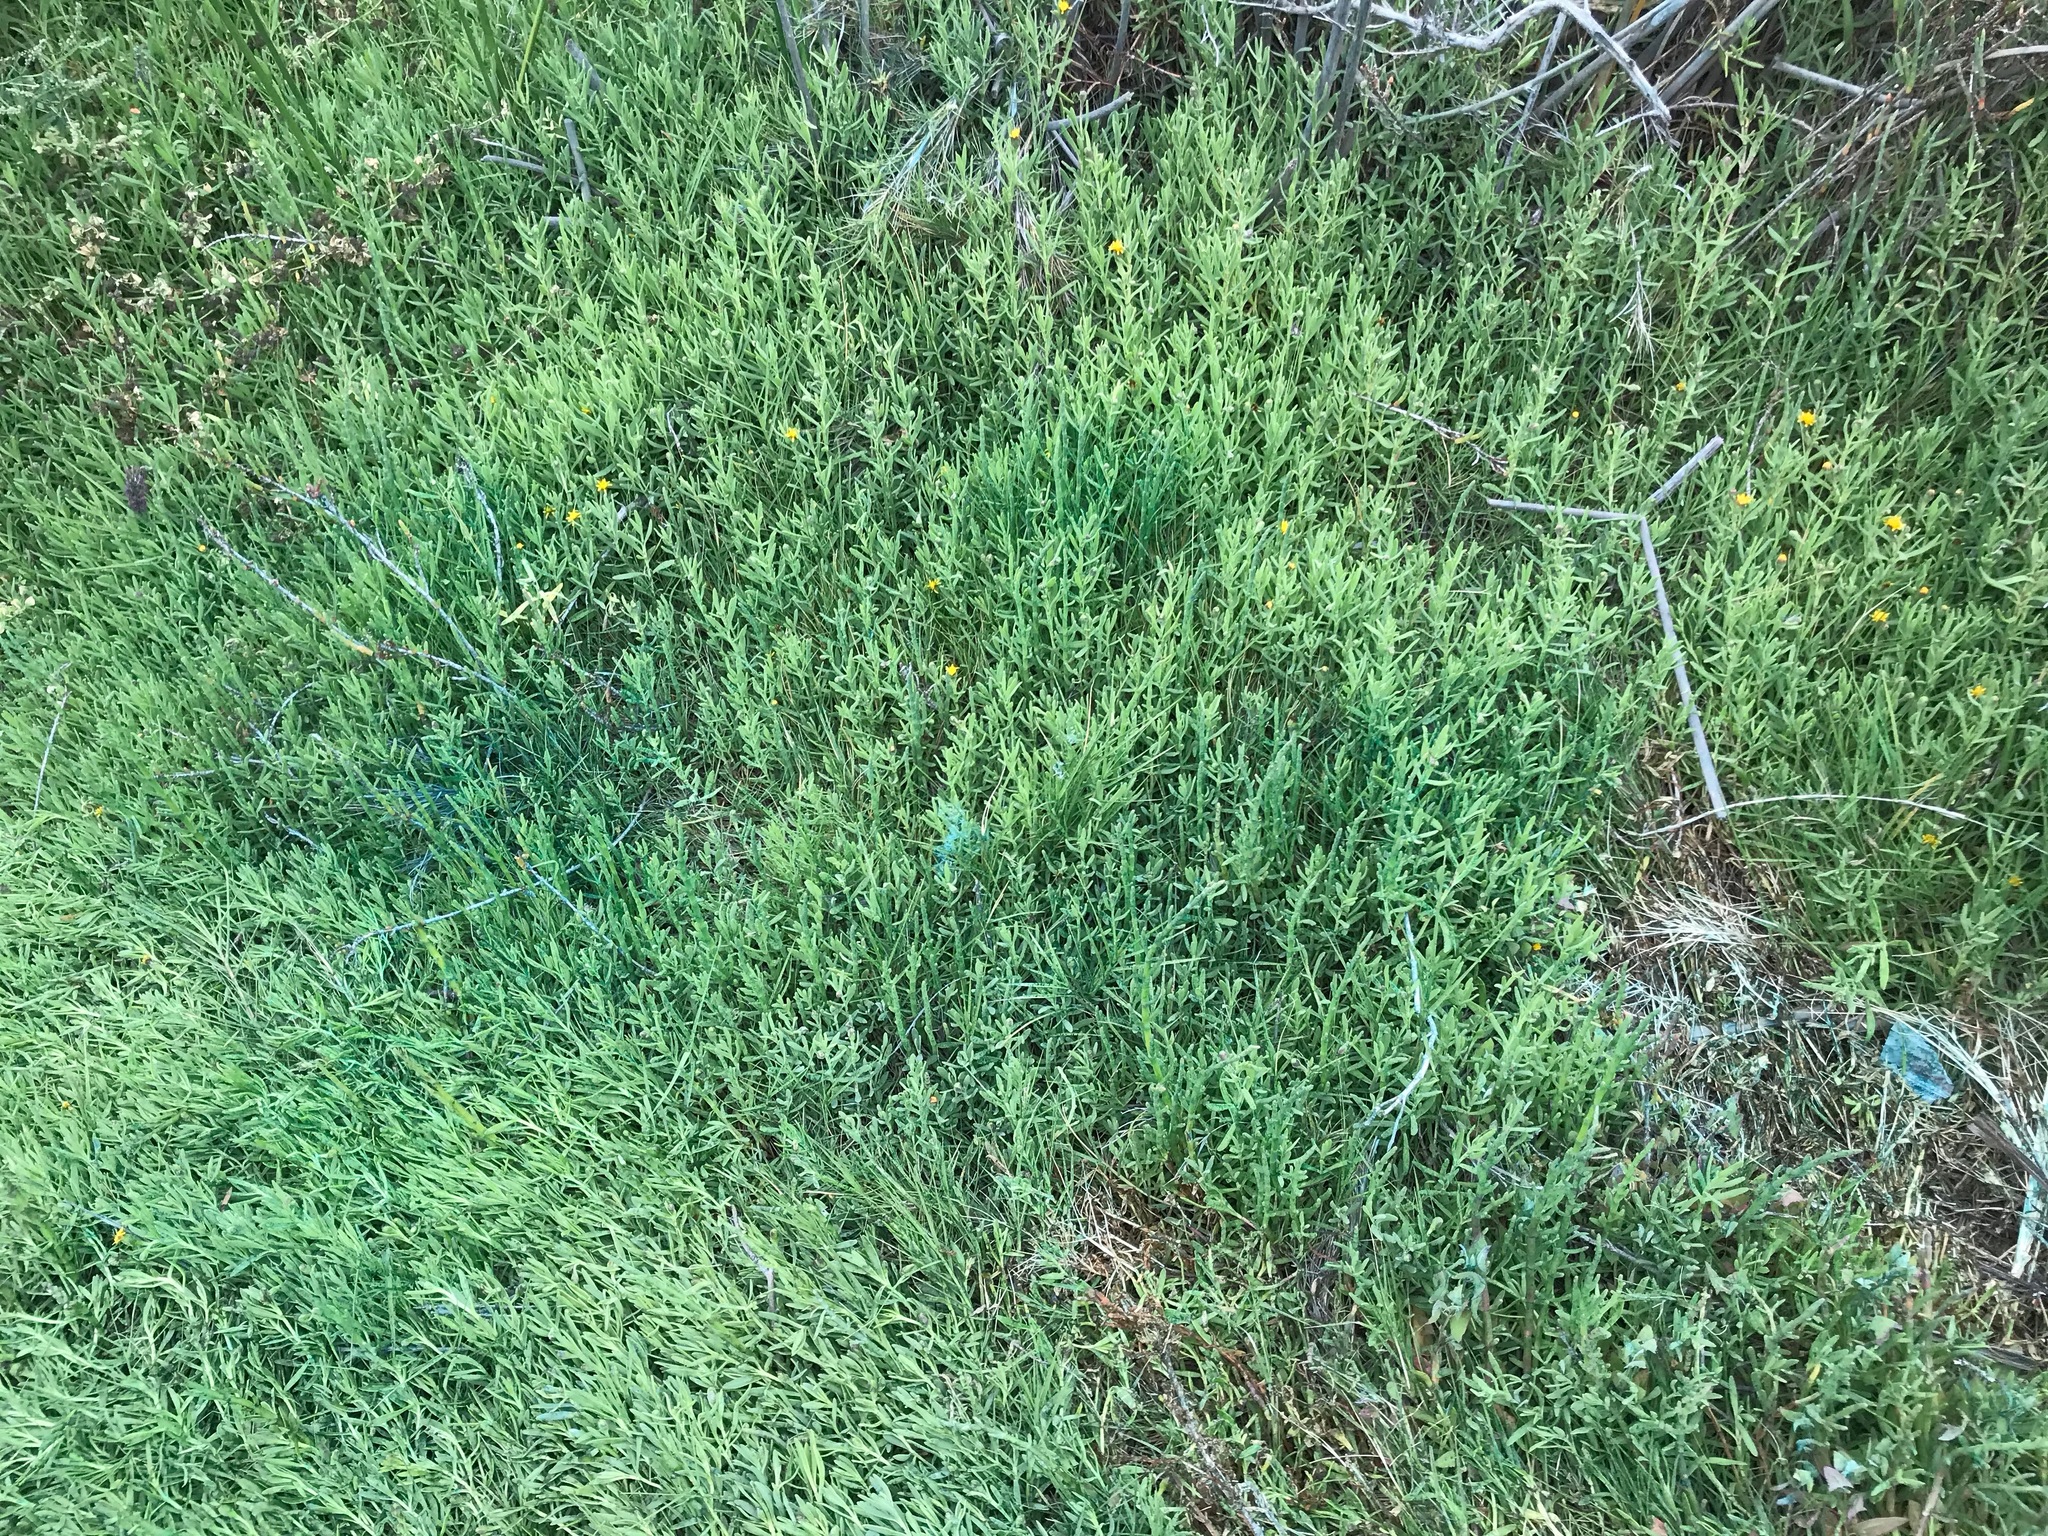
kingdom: Plantae
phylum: Tracheophyta
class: Magnoliopsida
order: Asterales
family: Asteraceae
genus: Jaumea
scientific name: Jaumea carnosa
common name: Fleshy jaumea
